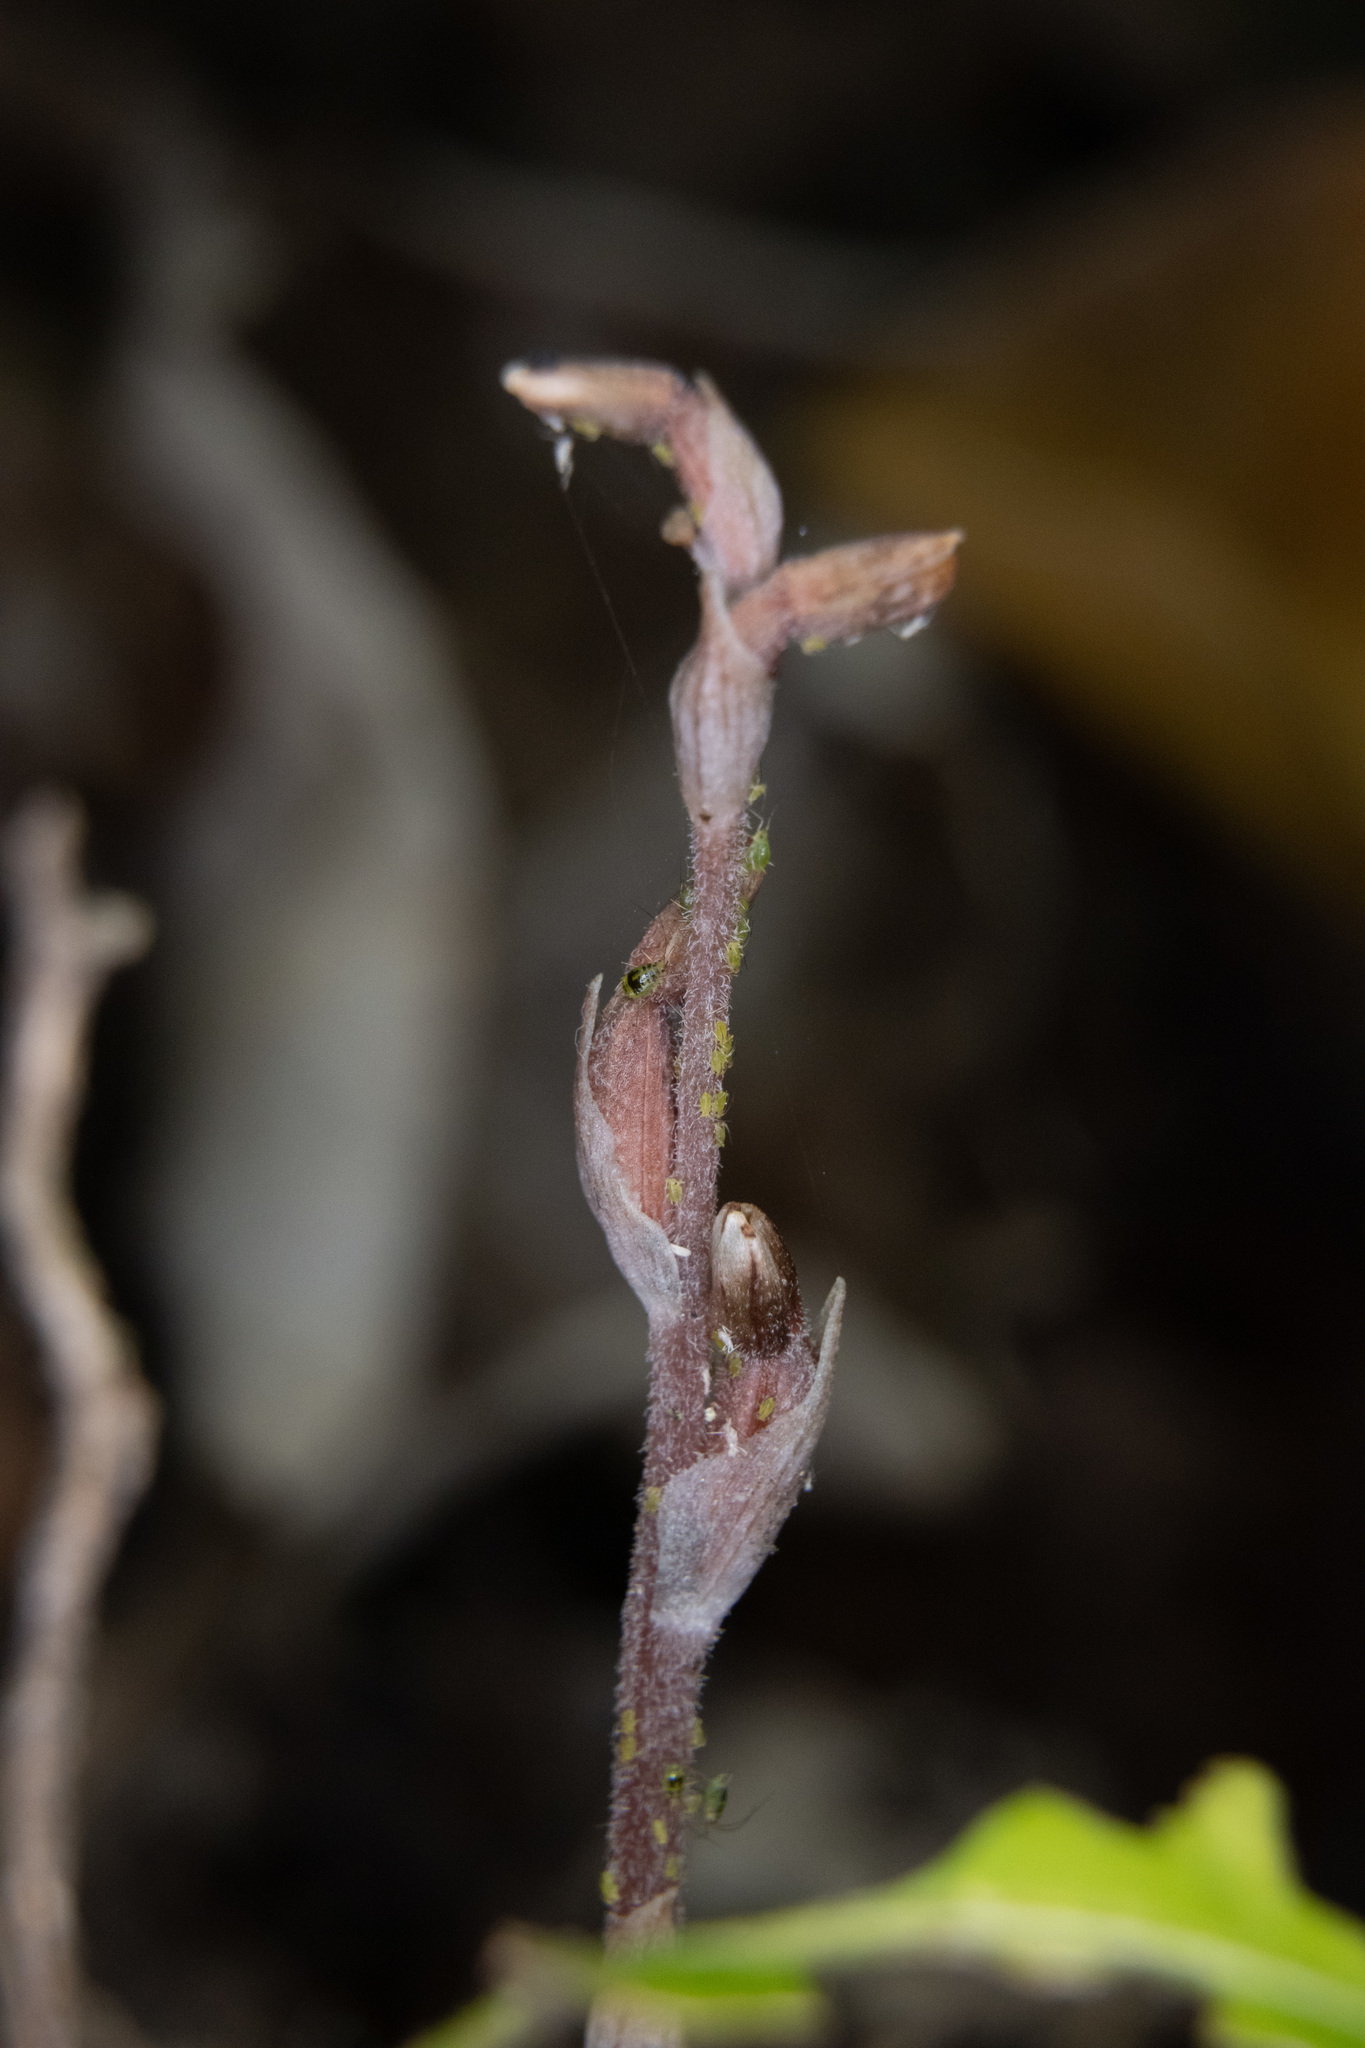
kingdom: Animalia
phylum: Arthropoda
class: Insecta
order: Hemiptera
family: Aphididae
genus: Neomyzus
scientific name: Neomyzus circumflexus
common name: Crescentmarked lily aphid
